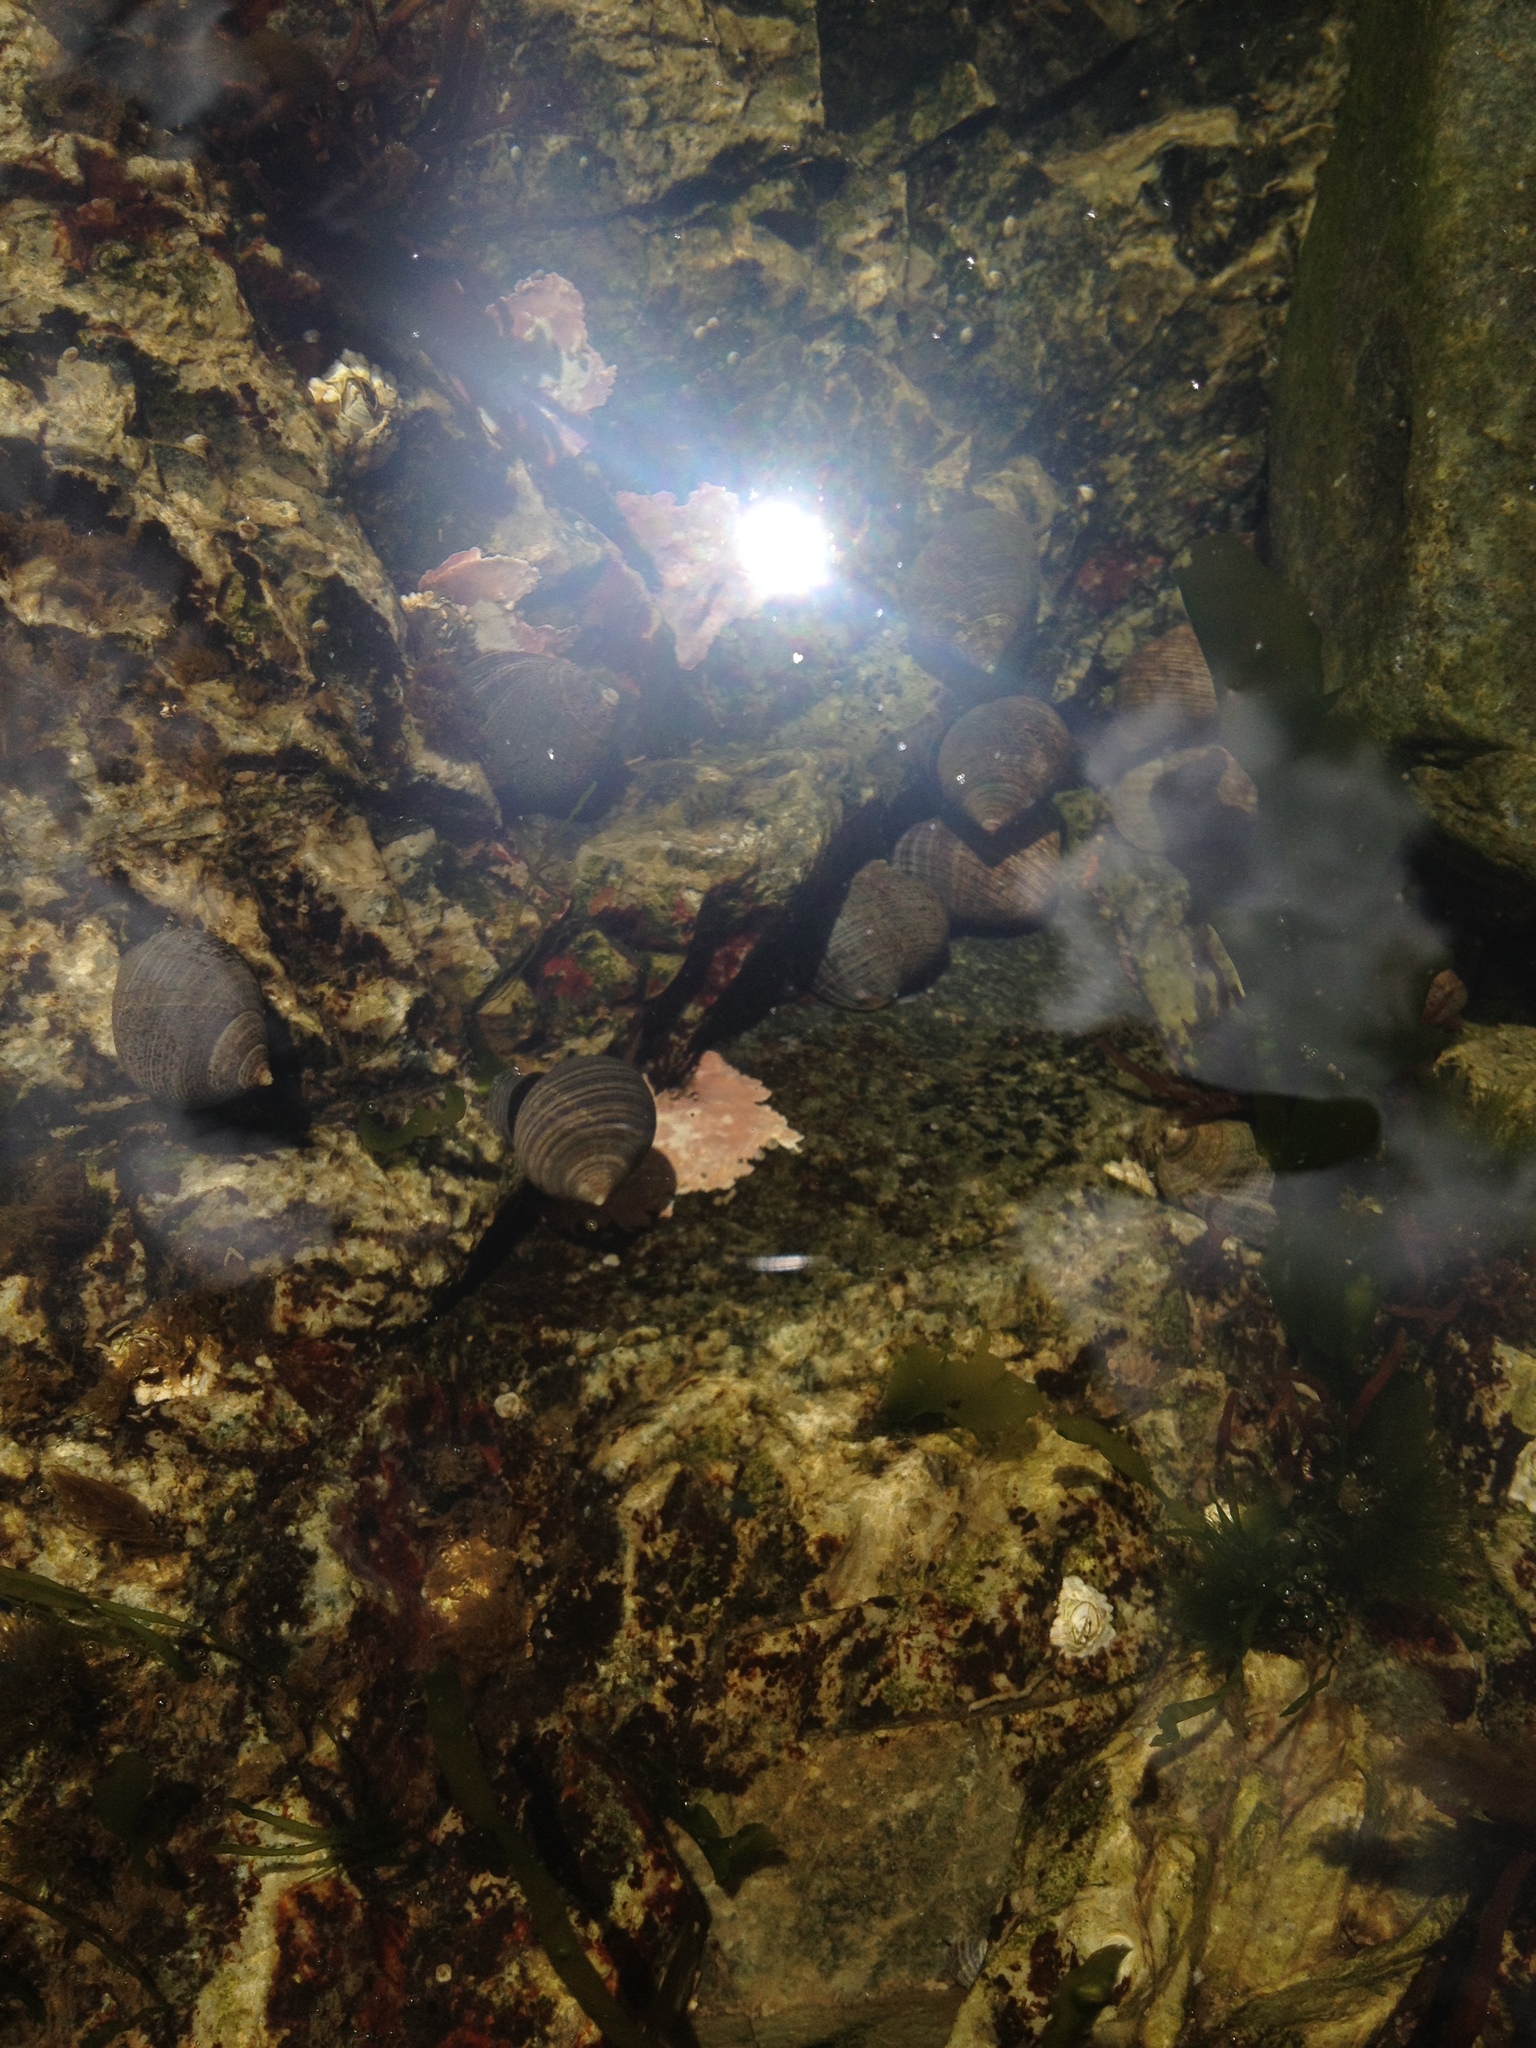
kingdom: Animalia
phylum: Mollusca
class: Gastropoda
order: Littorinimorpha
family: Littorinidae
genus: Littorina
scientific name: Littorina littorea
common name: Common periwinkle
